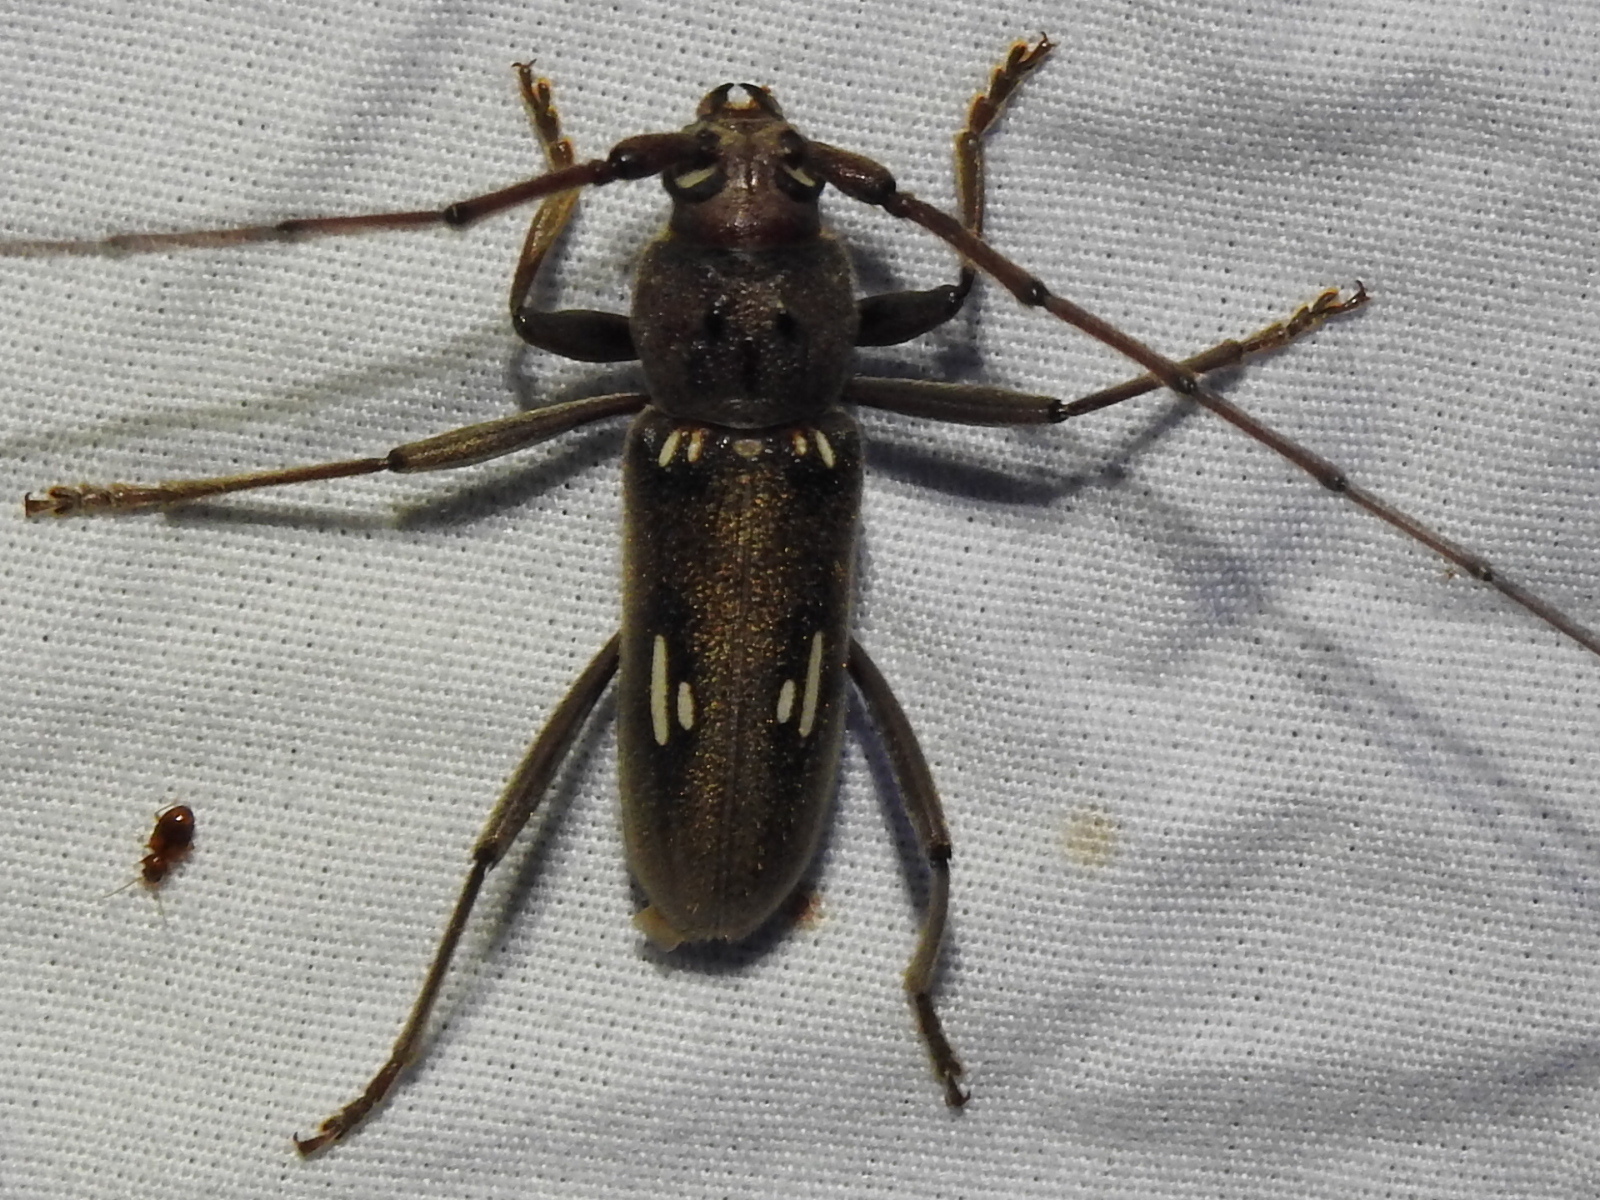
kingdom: Animalia
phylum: Arthropoda
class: Insecta
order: Coleoptera
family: Cerambycidae
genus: Eburia
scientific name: Eburia ovicollis
